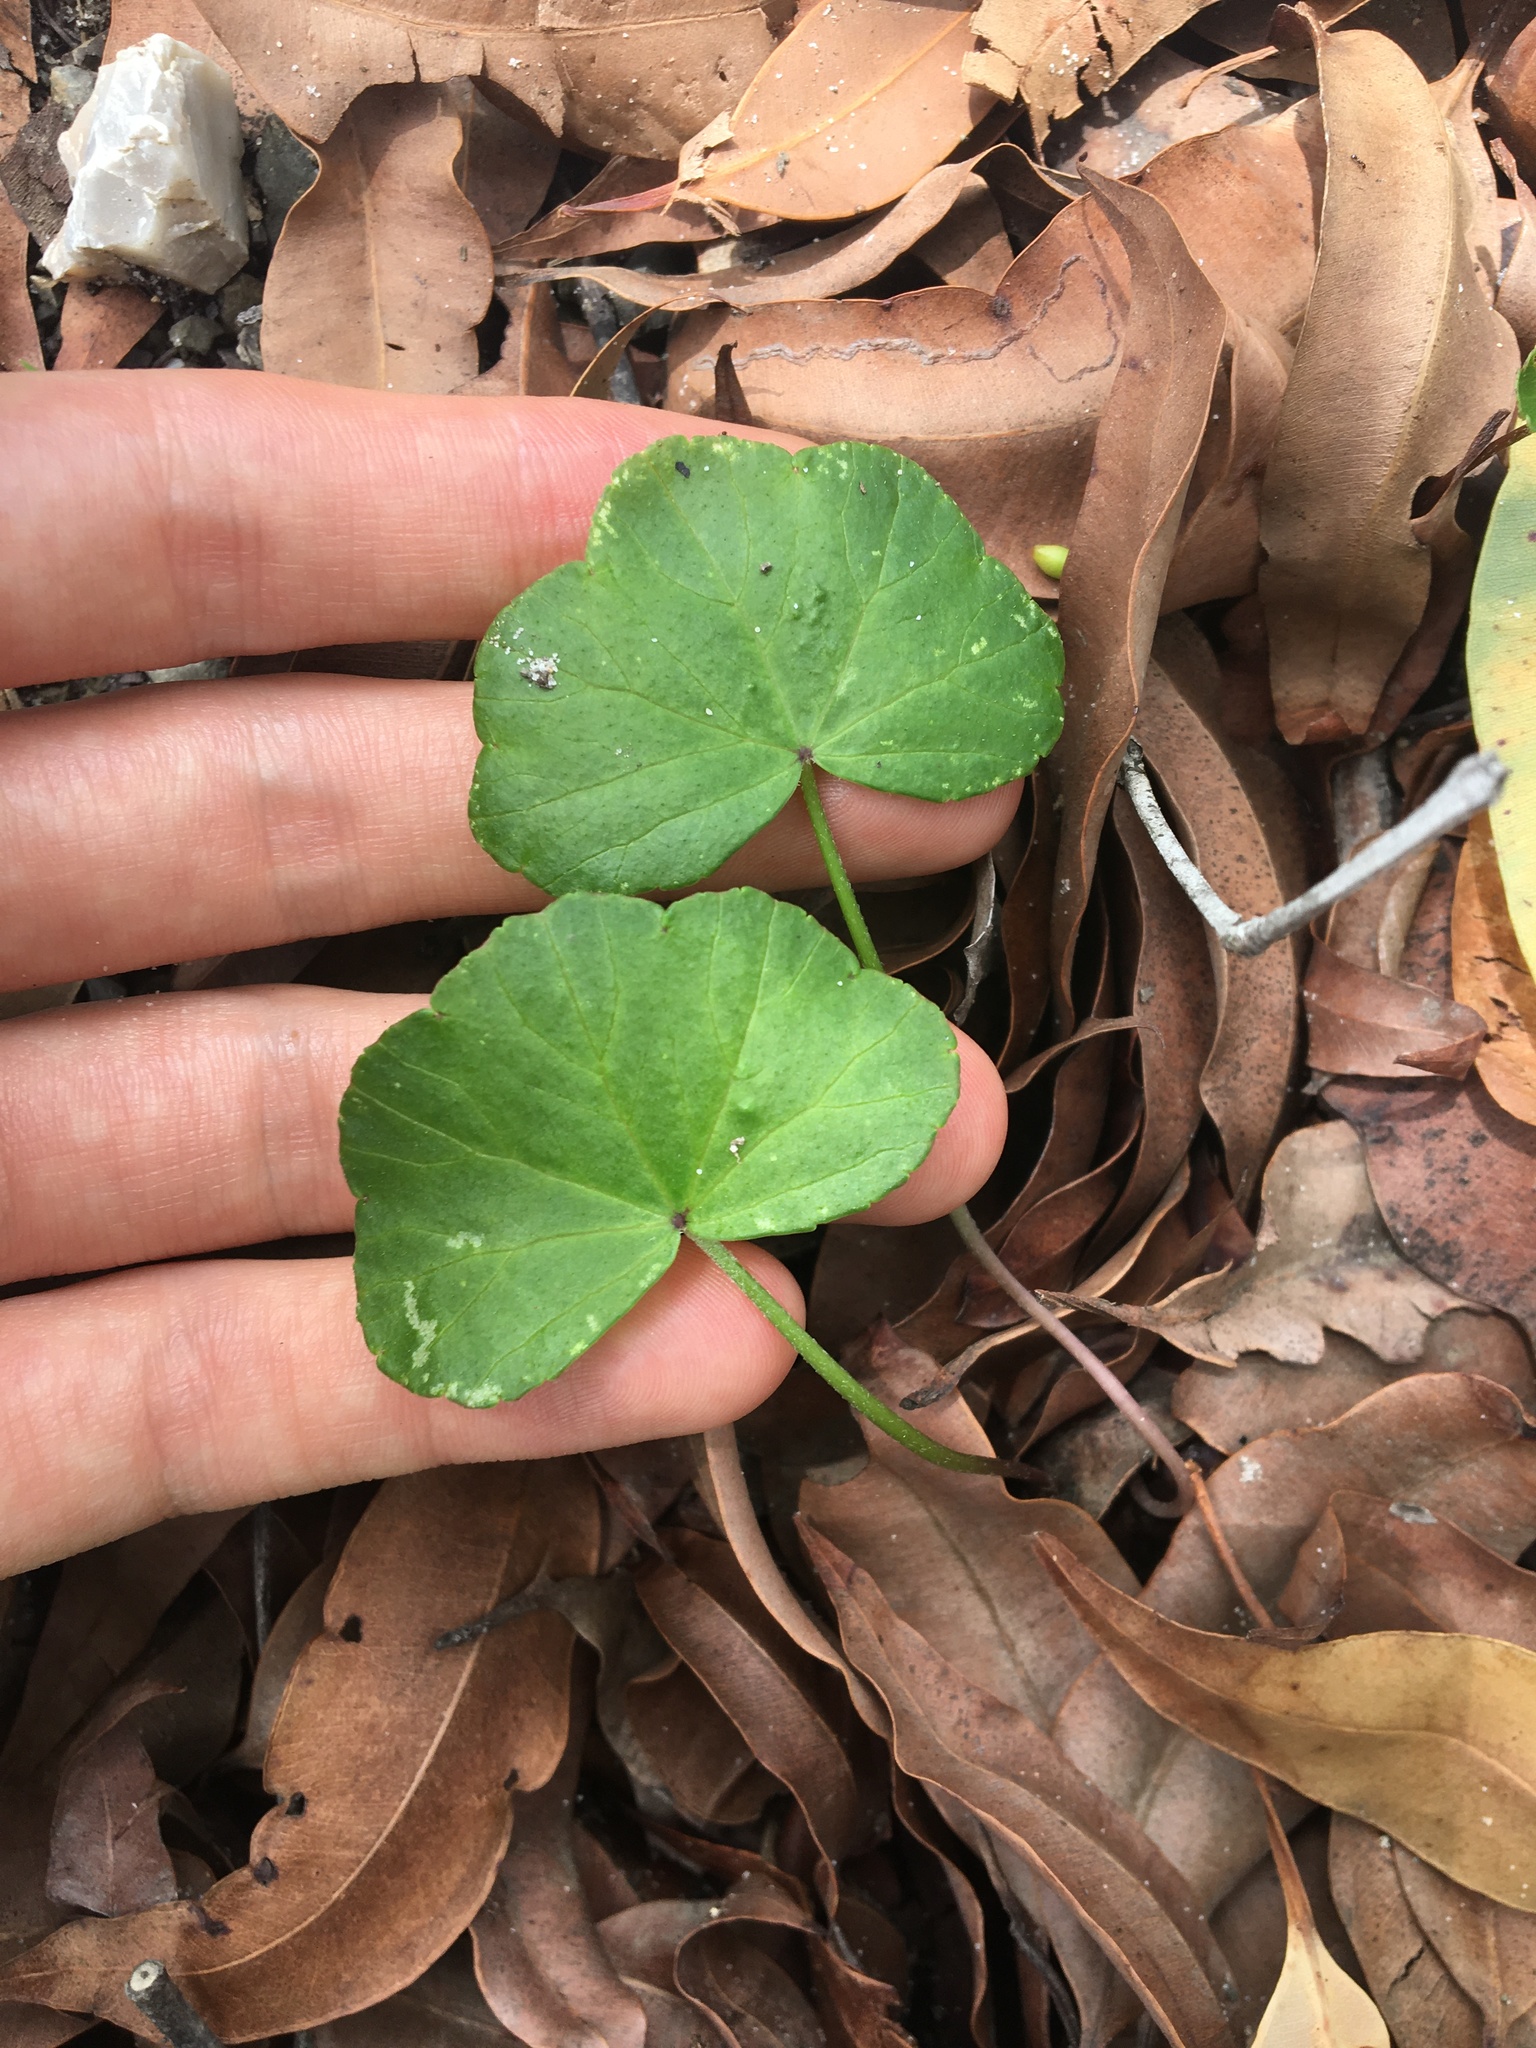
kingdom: Plantae
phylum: Tracheophyta
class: Magnoliopsida
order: Apiales
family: Araliaceae
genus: Hydrocotyle
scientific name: Hydrocotyle hirta
